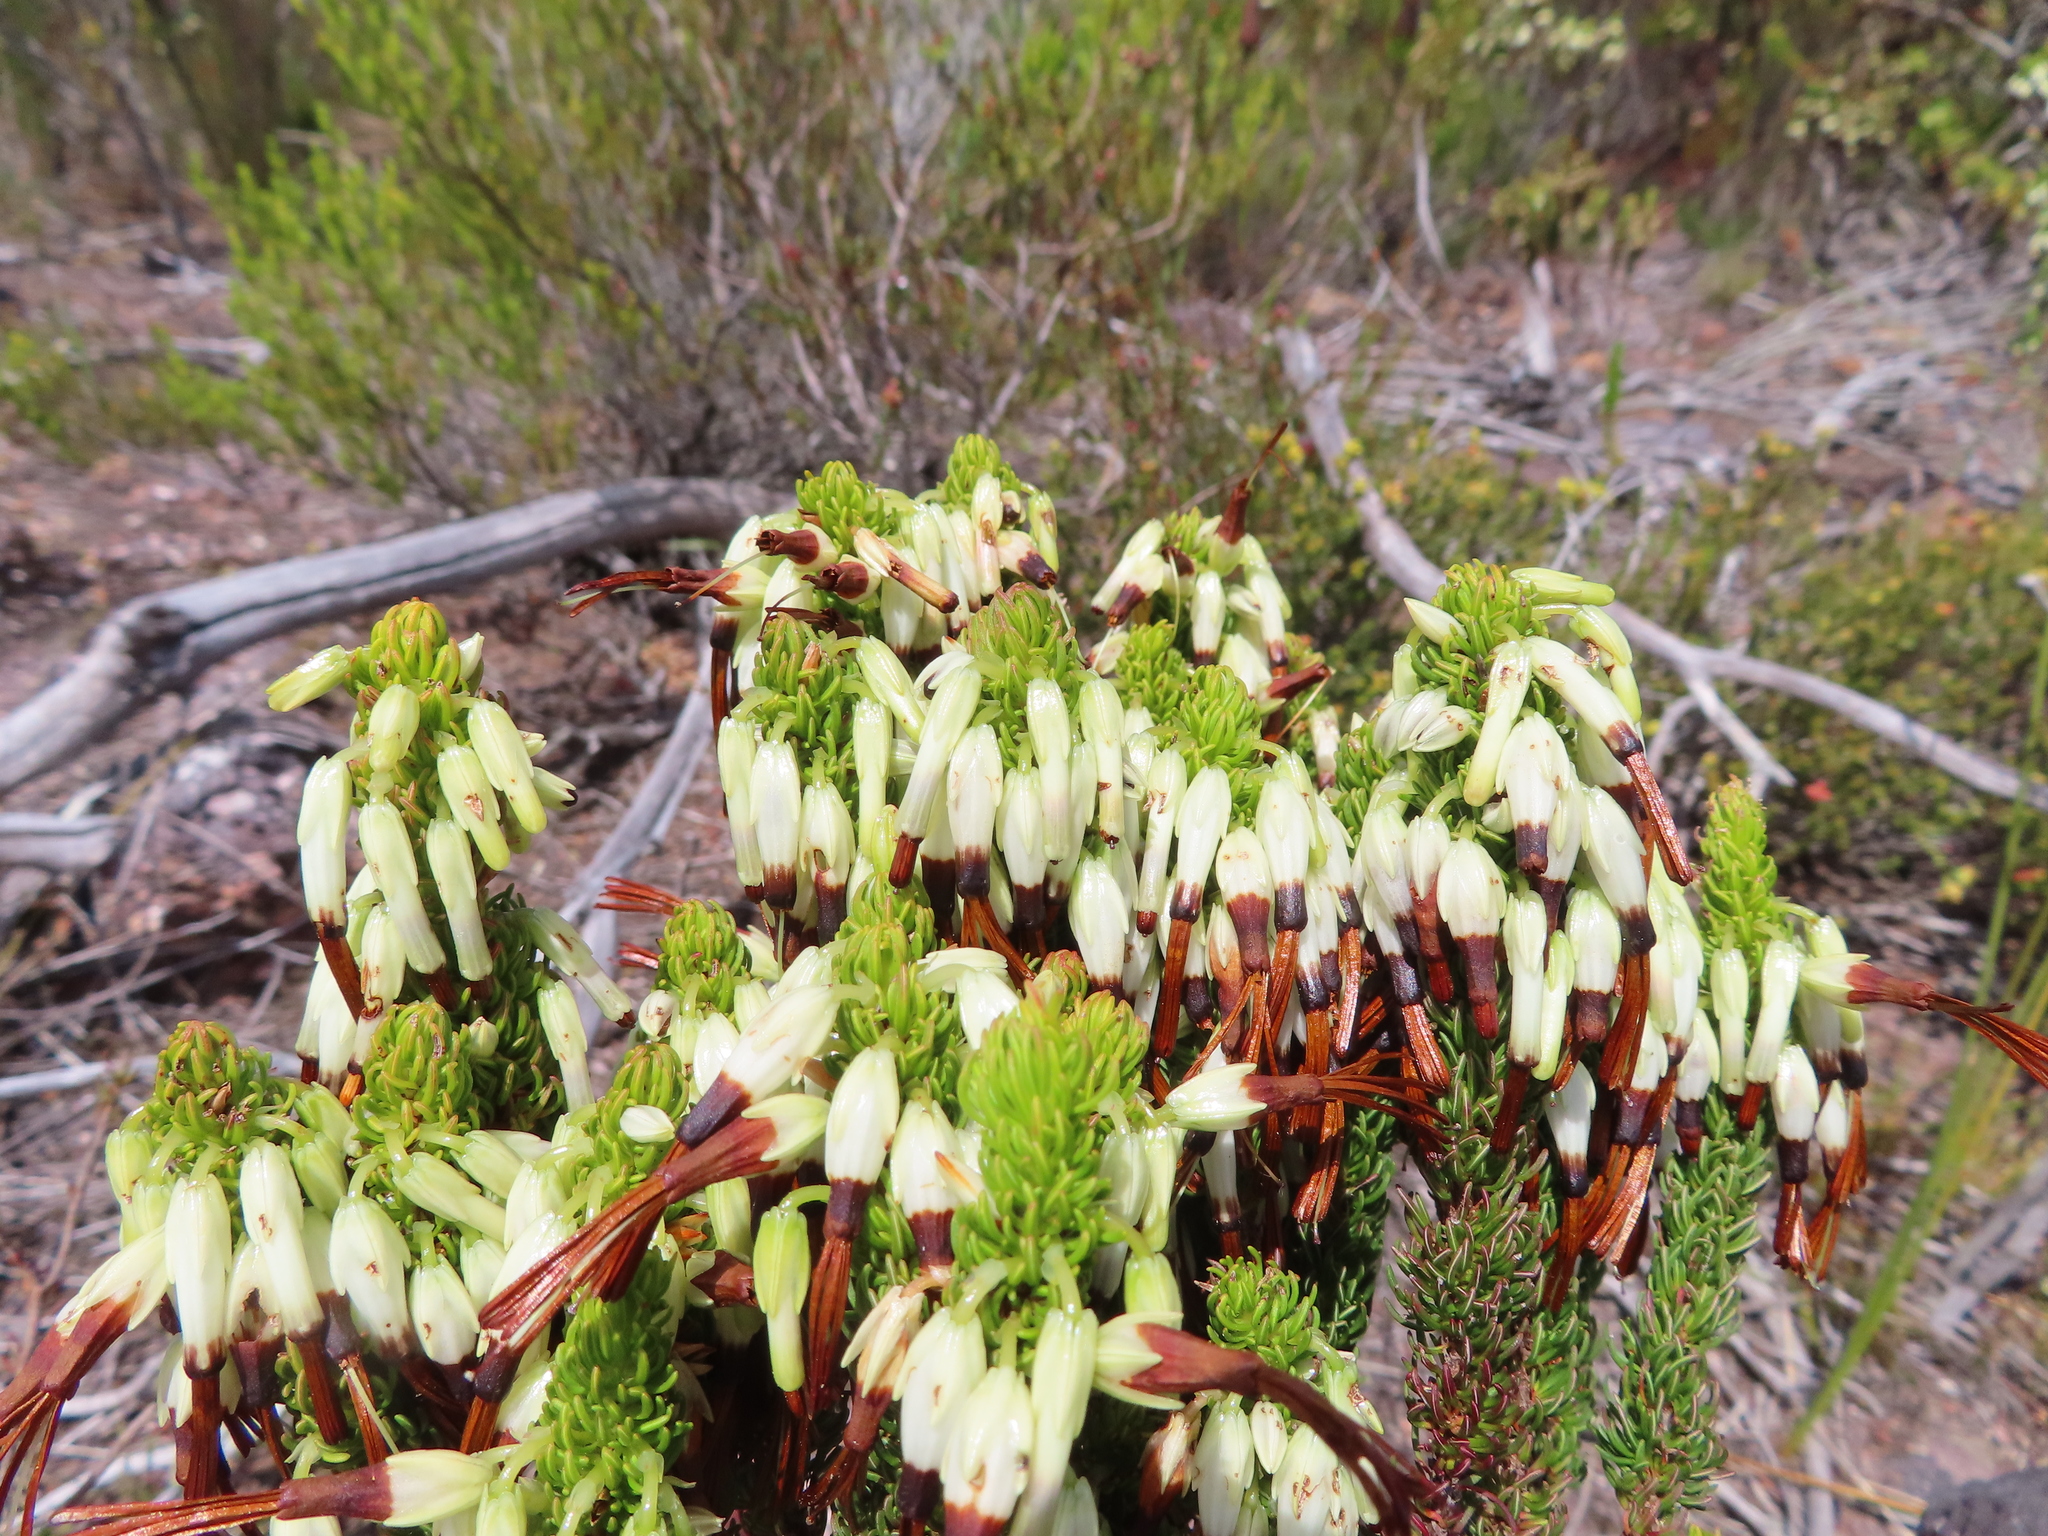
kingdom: Plantae
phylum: Tracheophyta
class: Magnoliopsida
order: Ericales
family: Ericaceae
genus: Erica
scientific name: Erica plukenetii
